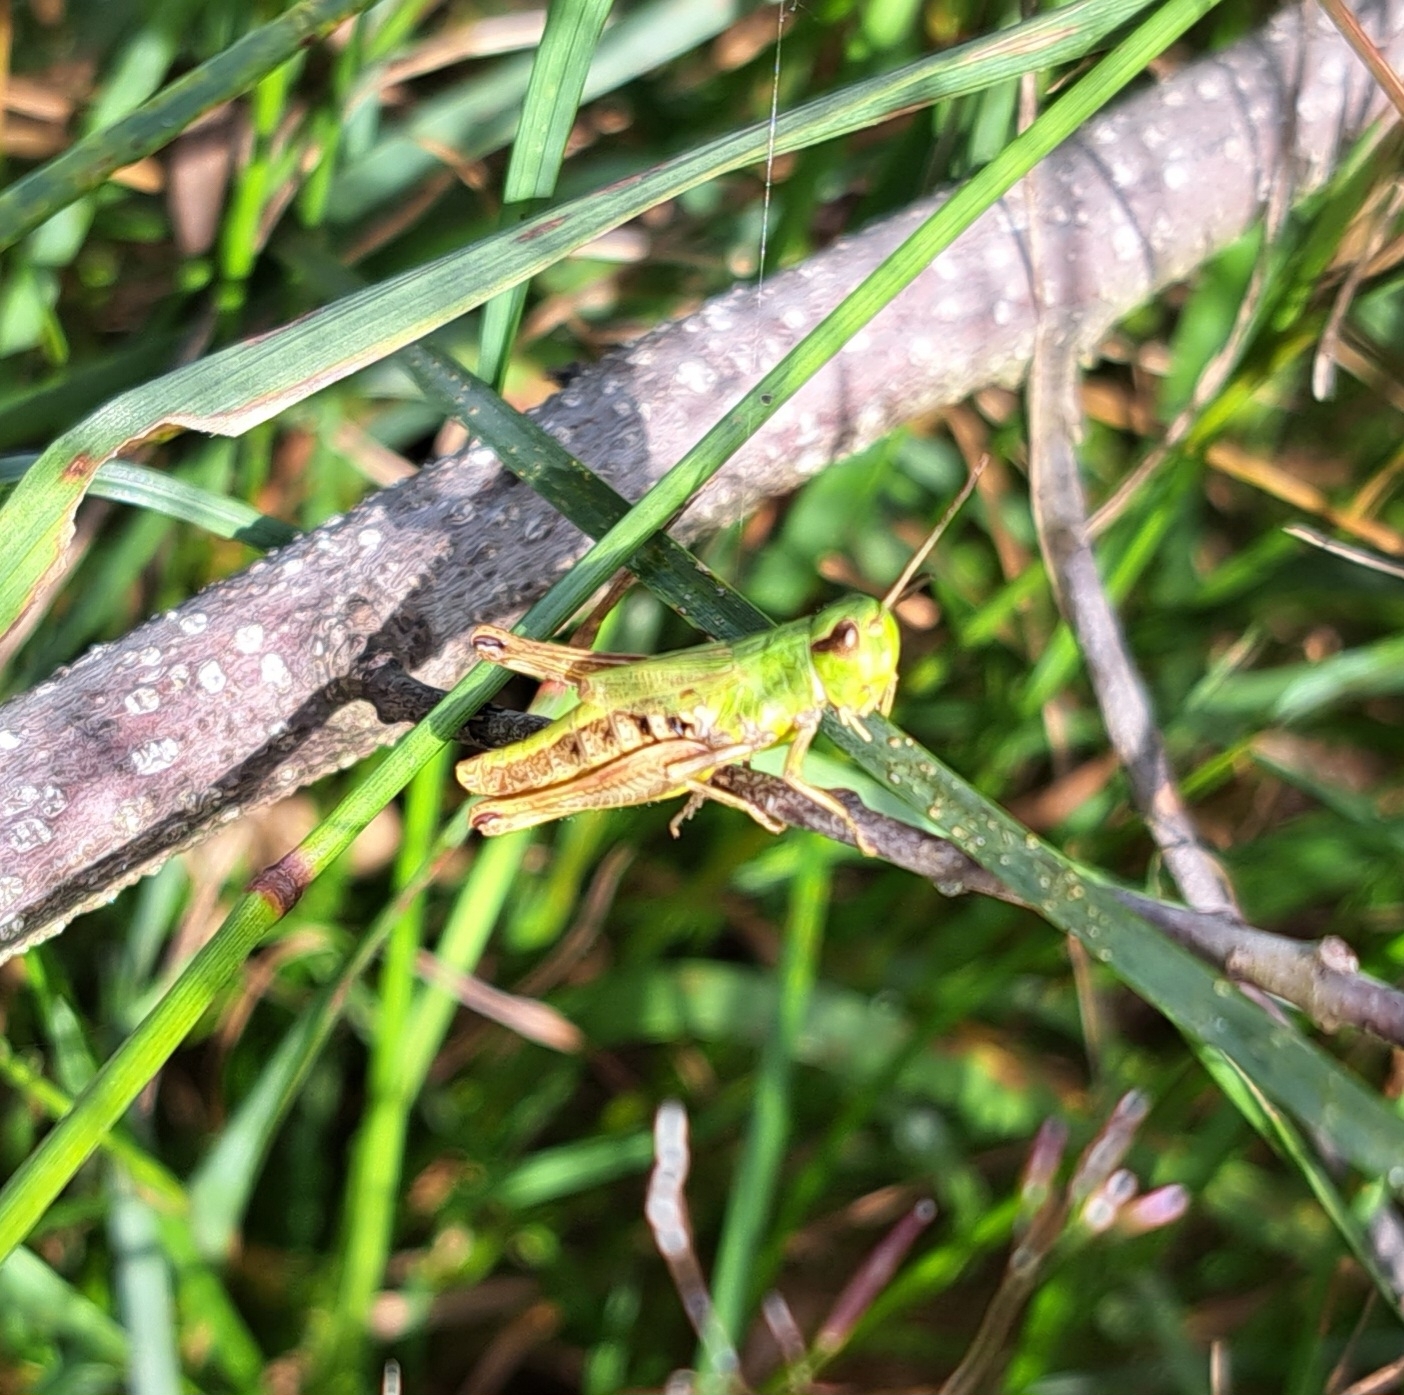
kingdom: Animalia
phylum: Arthropoda
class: Insecta
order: Orthoptera
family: Acrididae
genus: Pseudochorthippus
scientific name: Pseudochorthippus parallelus
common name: Meadow grasshopper
